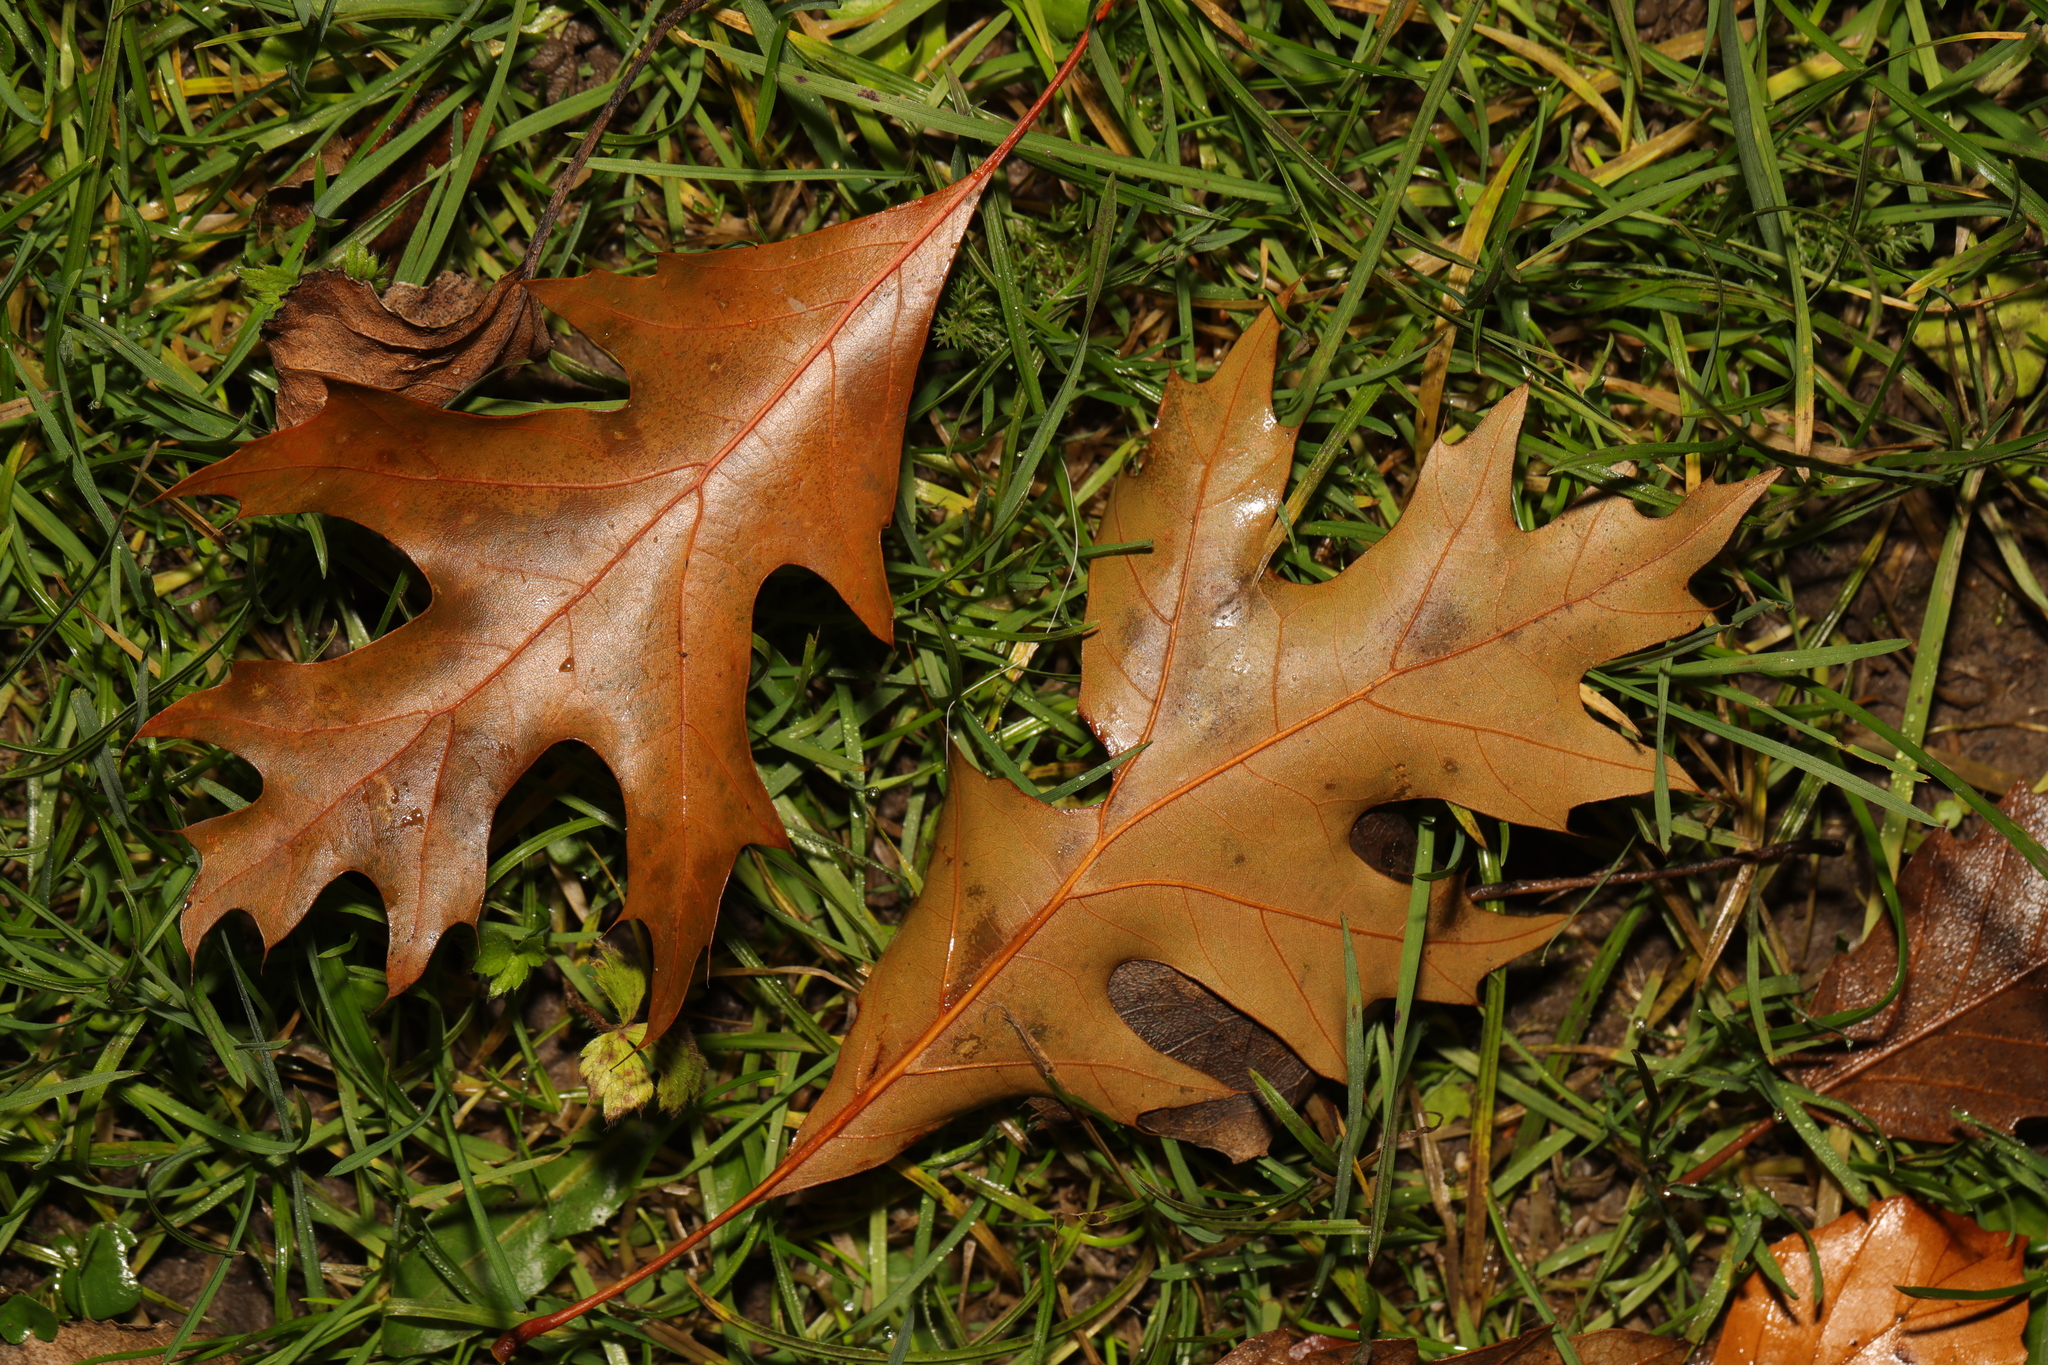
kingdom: Plantae
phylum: Tracheophyta
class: Magnoliopsida
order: Fagales
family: Fagaceae
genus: Quercus
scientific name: Quercus rubra
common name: Red oak
